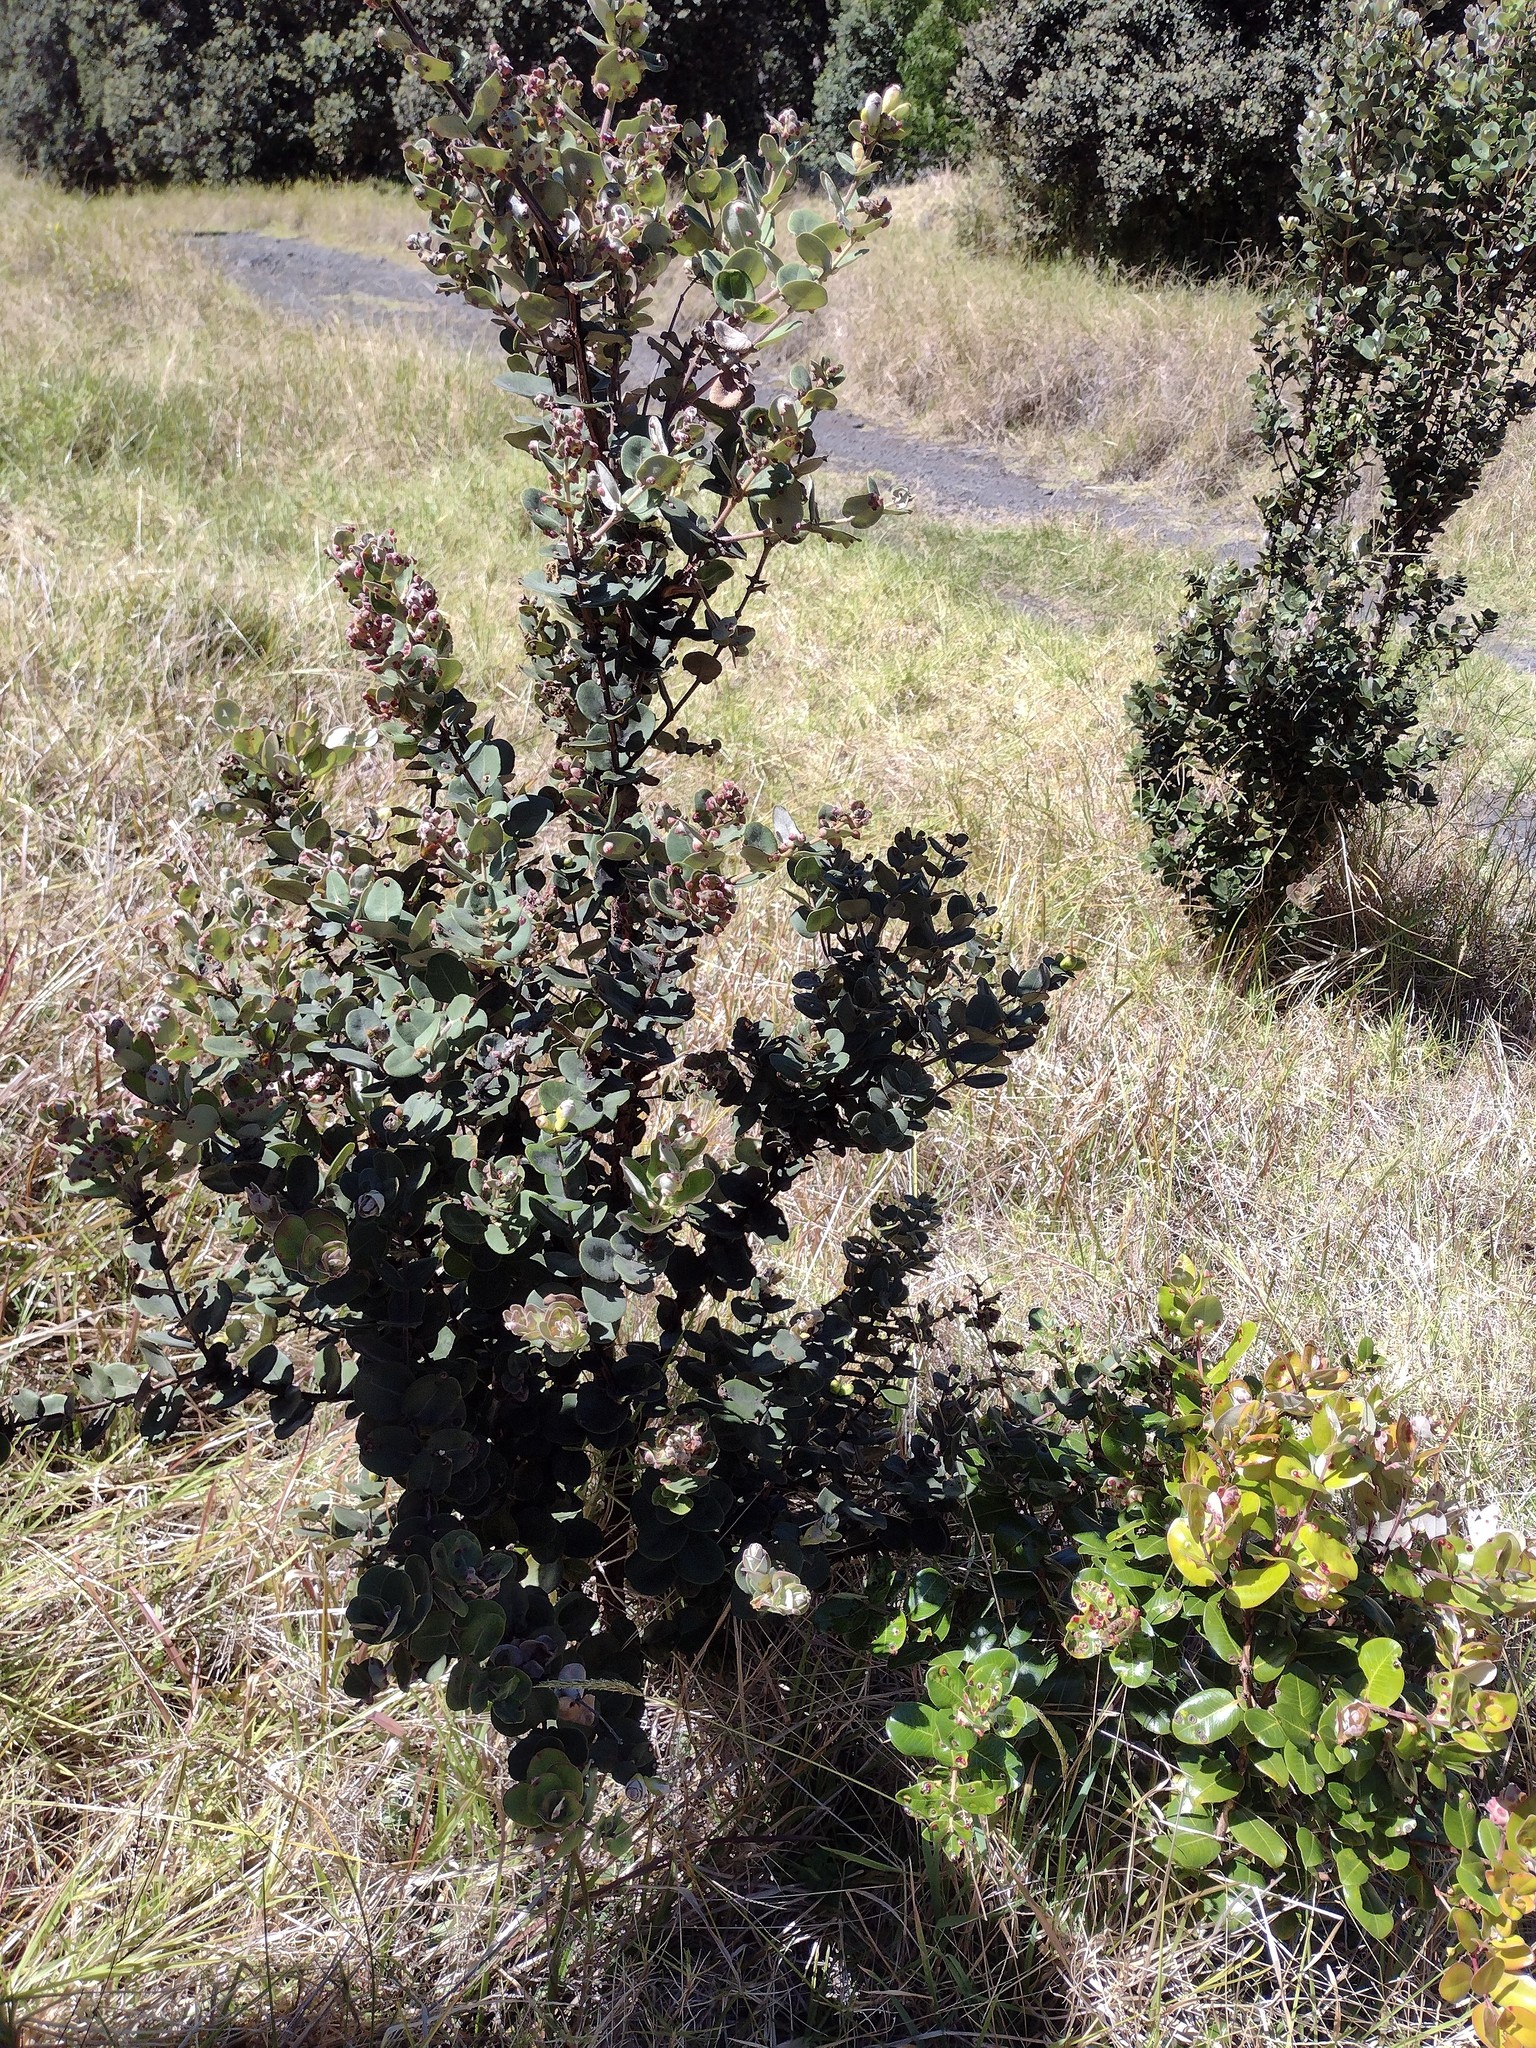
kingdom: Plantae
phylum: Tracheophyta
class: Magnoliopsida
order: Myrtales
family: Myrtaceae
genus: Metrosideros
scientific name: Metrosideros polymorpha
